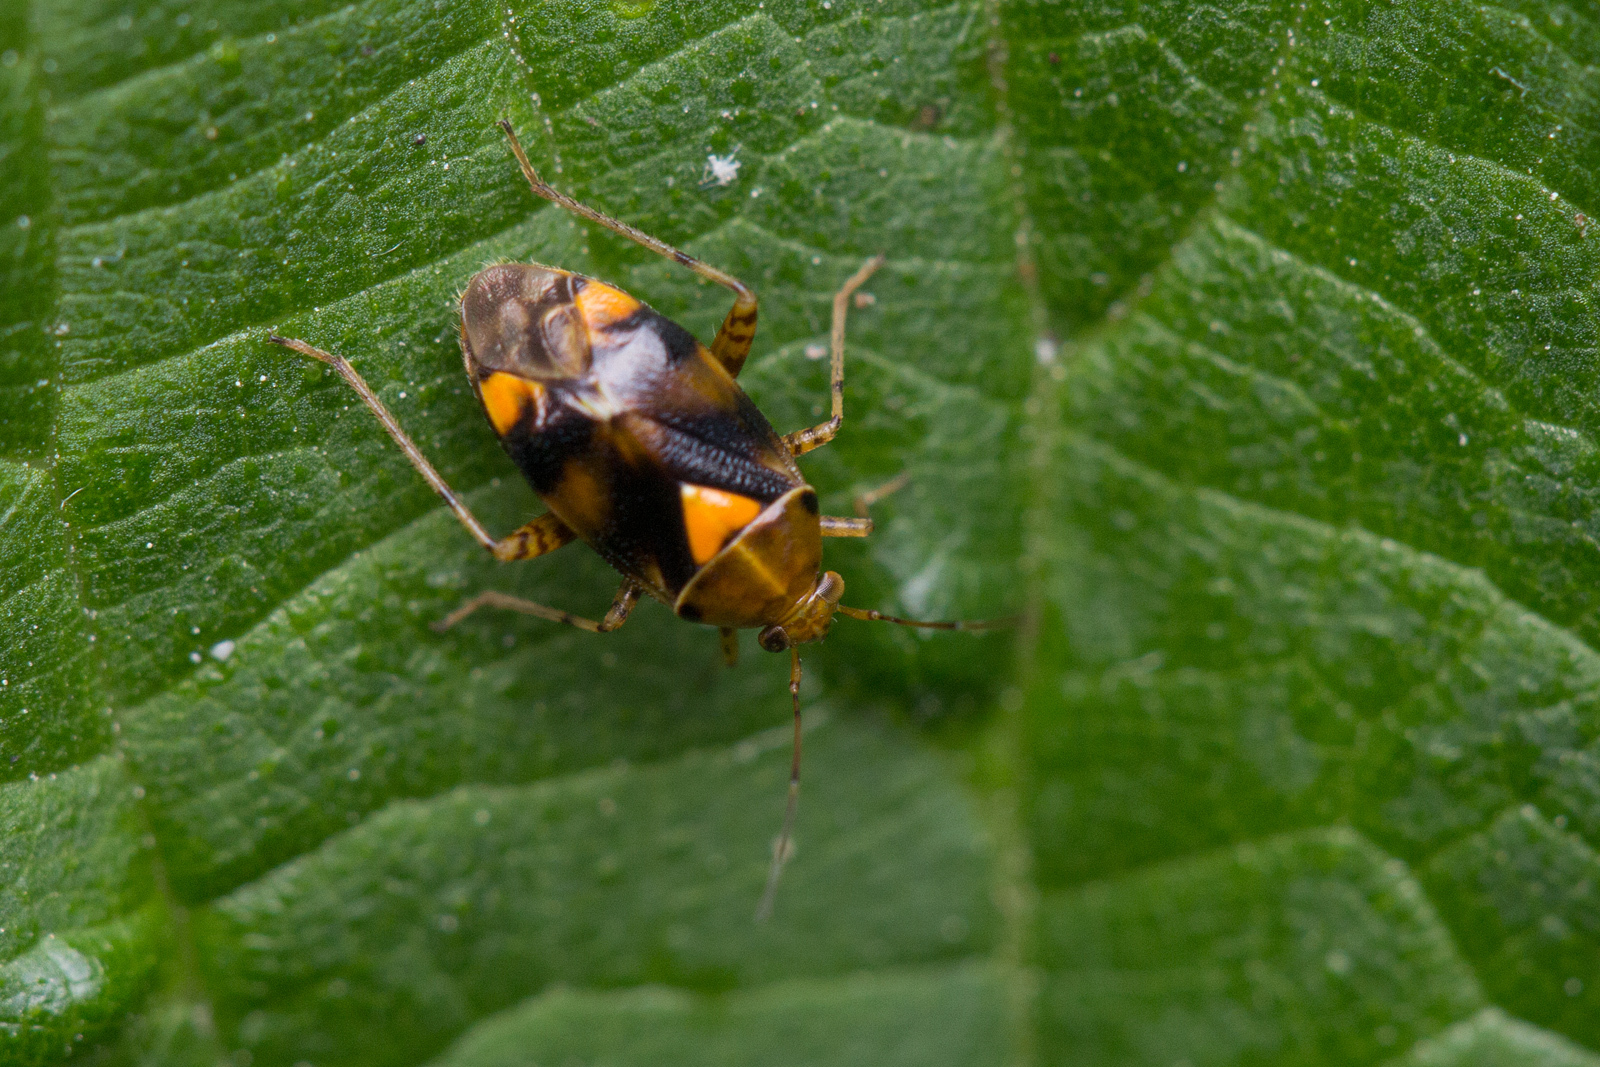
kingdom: Animalia
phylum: Arthropoda
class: Insecta
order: Hemiptera
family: Miridae
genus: Liocoris
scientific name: Liocoris tripustulatus
